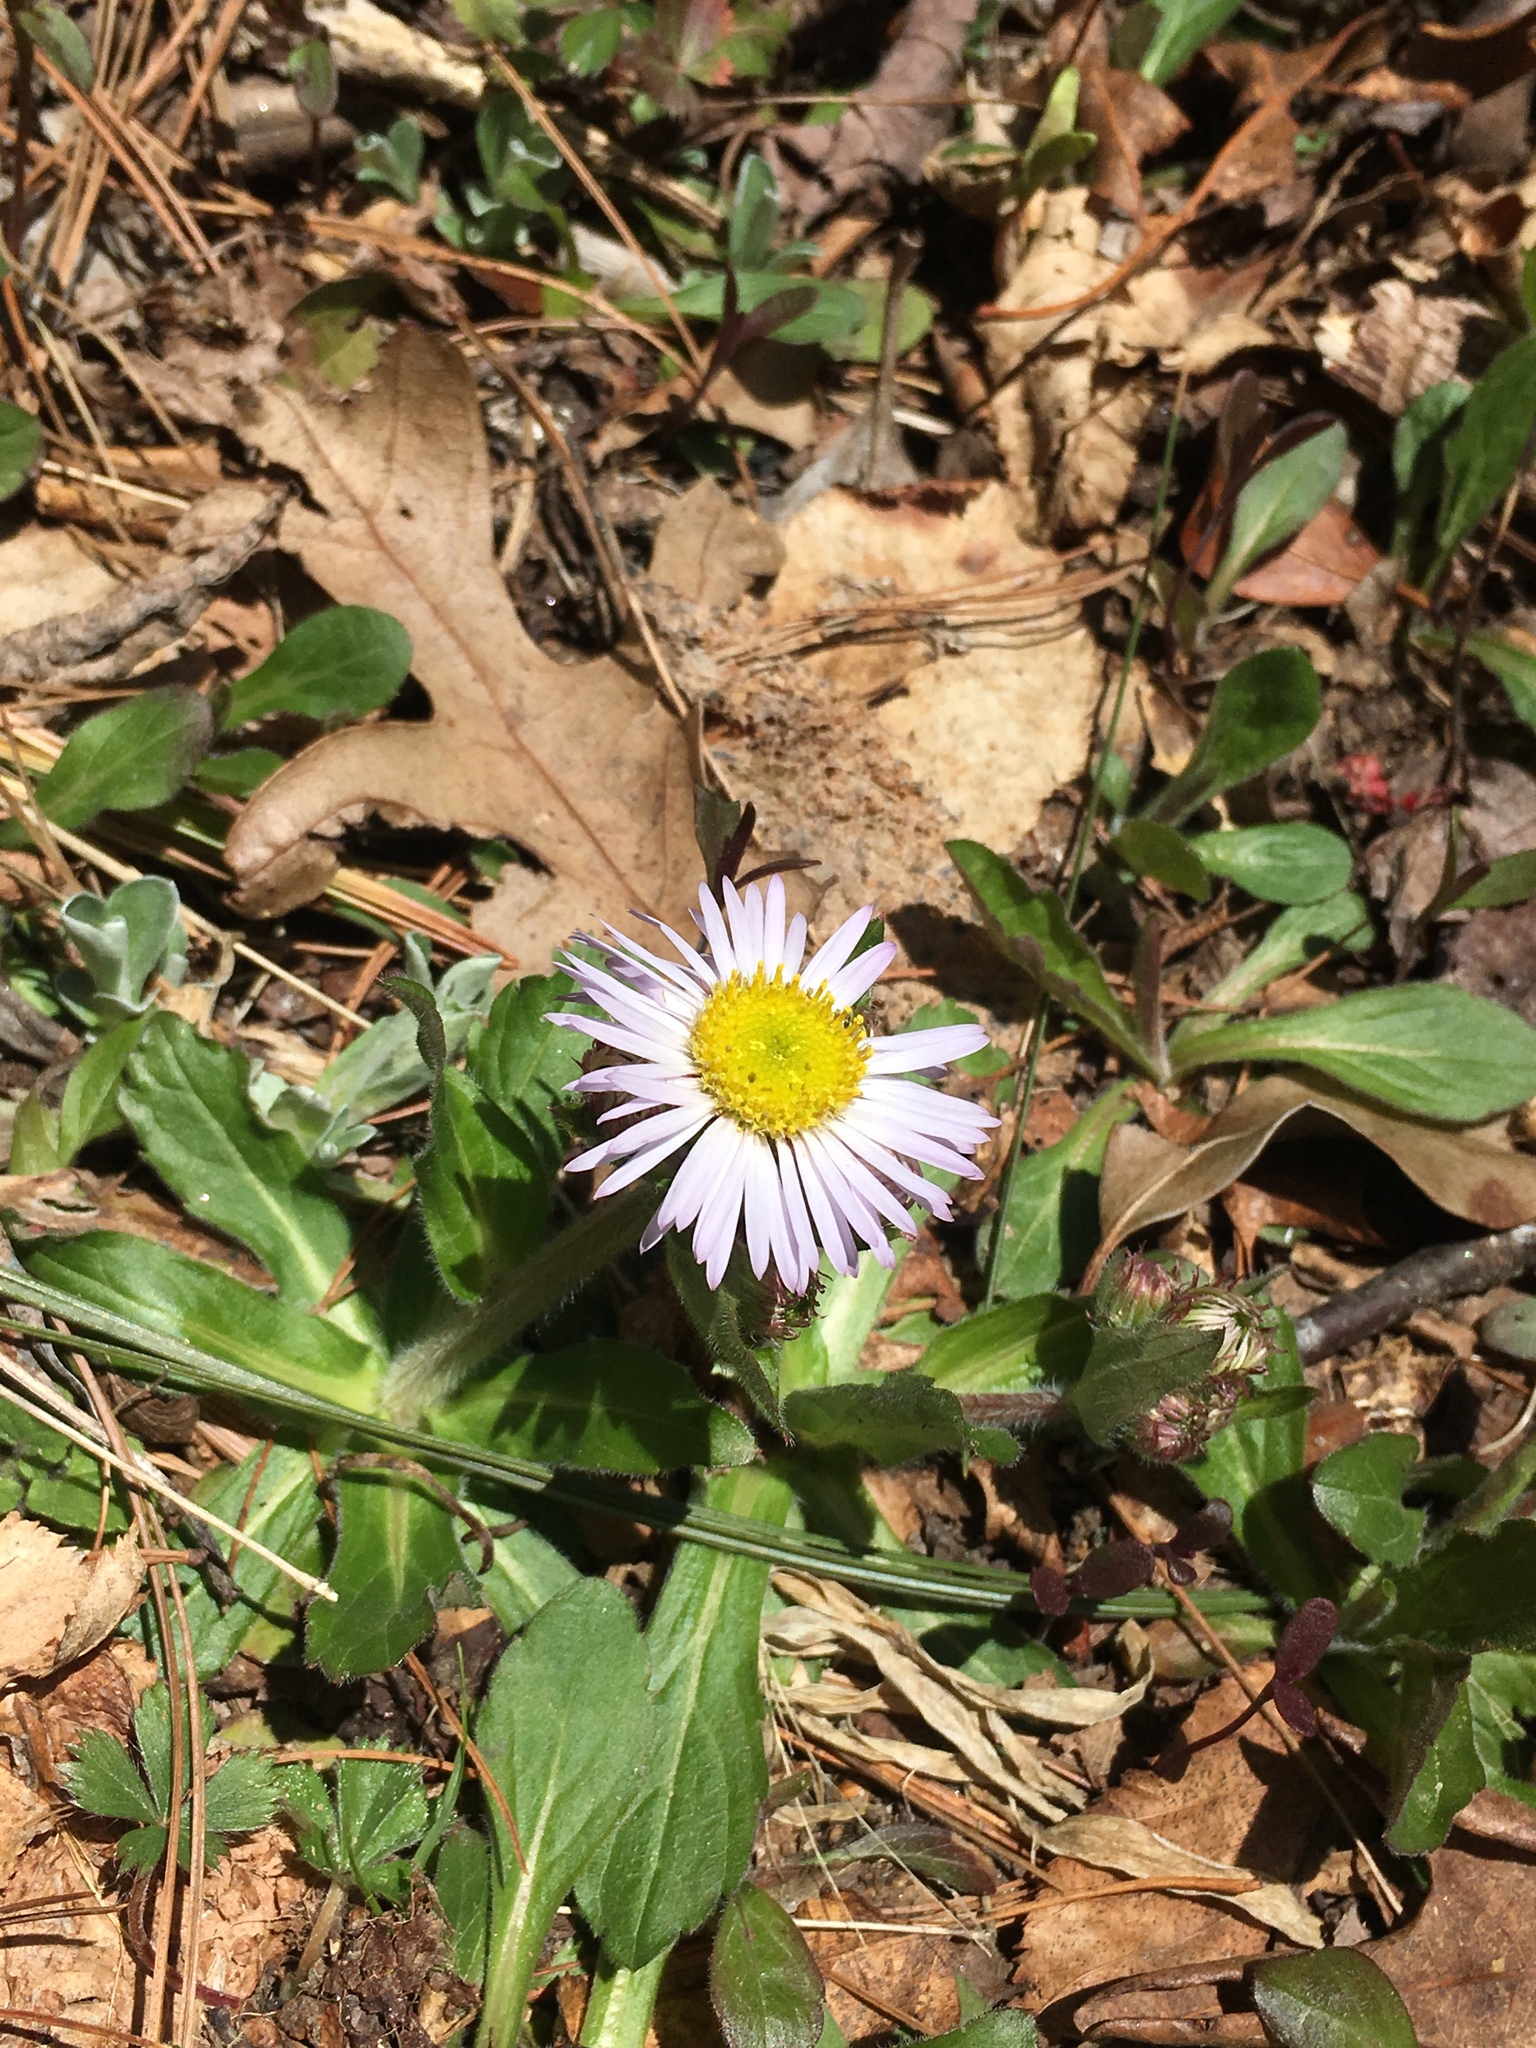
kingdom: Plantae
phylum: Tracheophyta
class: Magnoliopsida
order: Asterales
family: Asteraceae
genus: Erigeron
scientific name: Erigeron pulchellus
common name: Hairy fleabane
